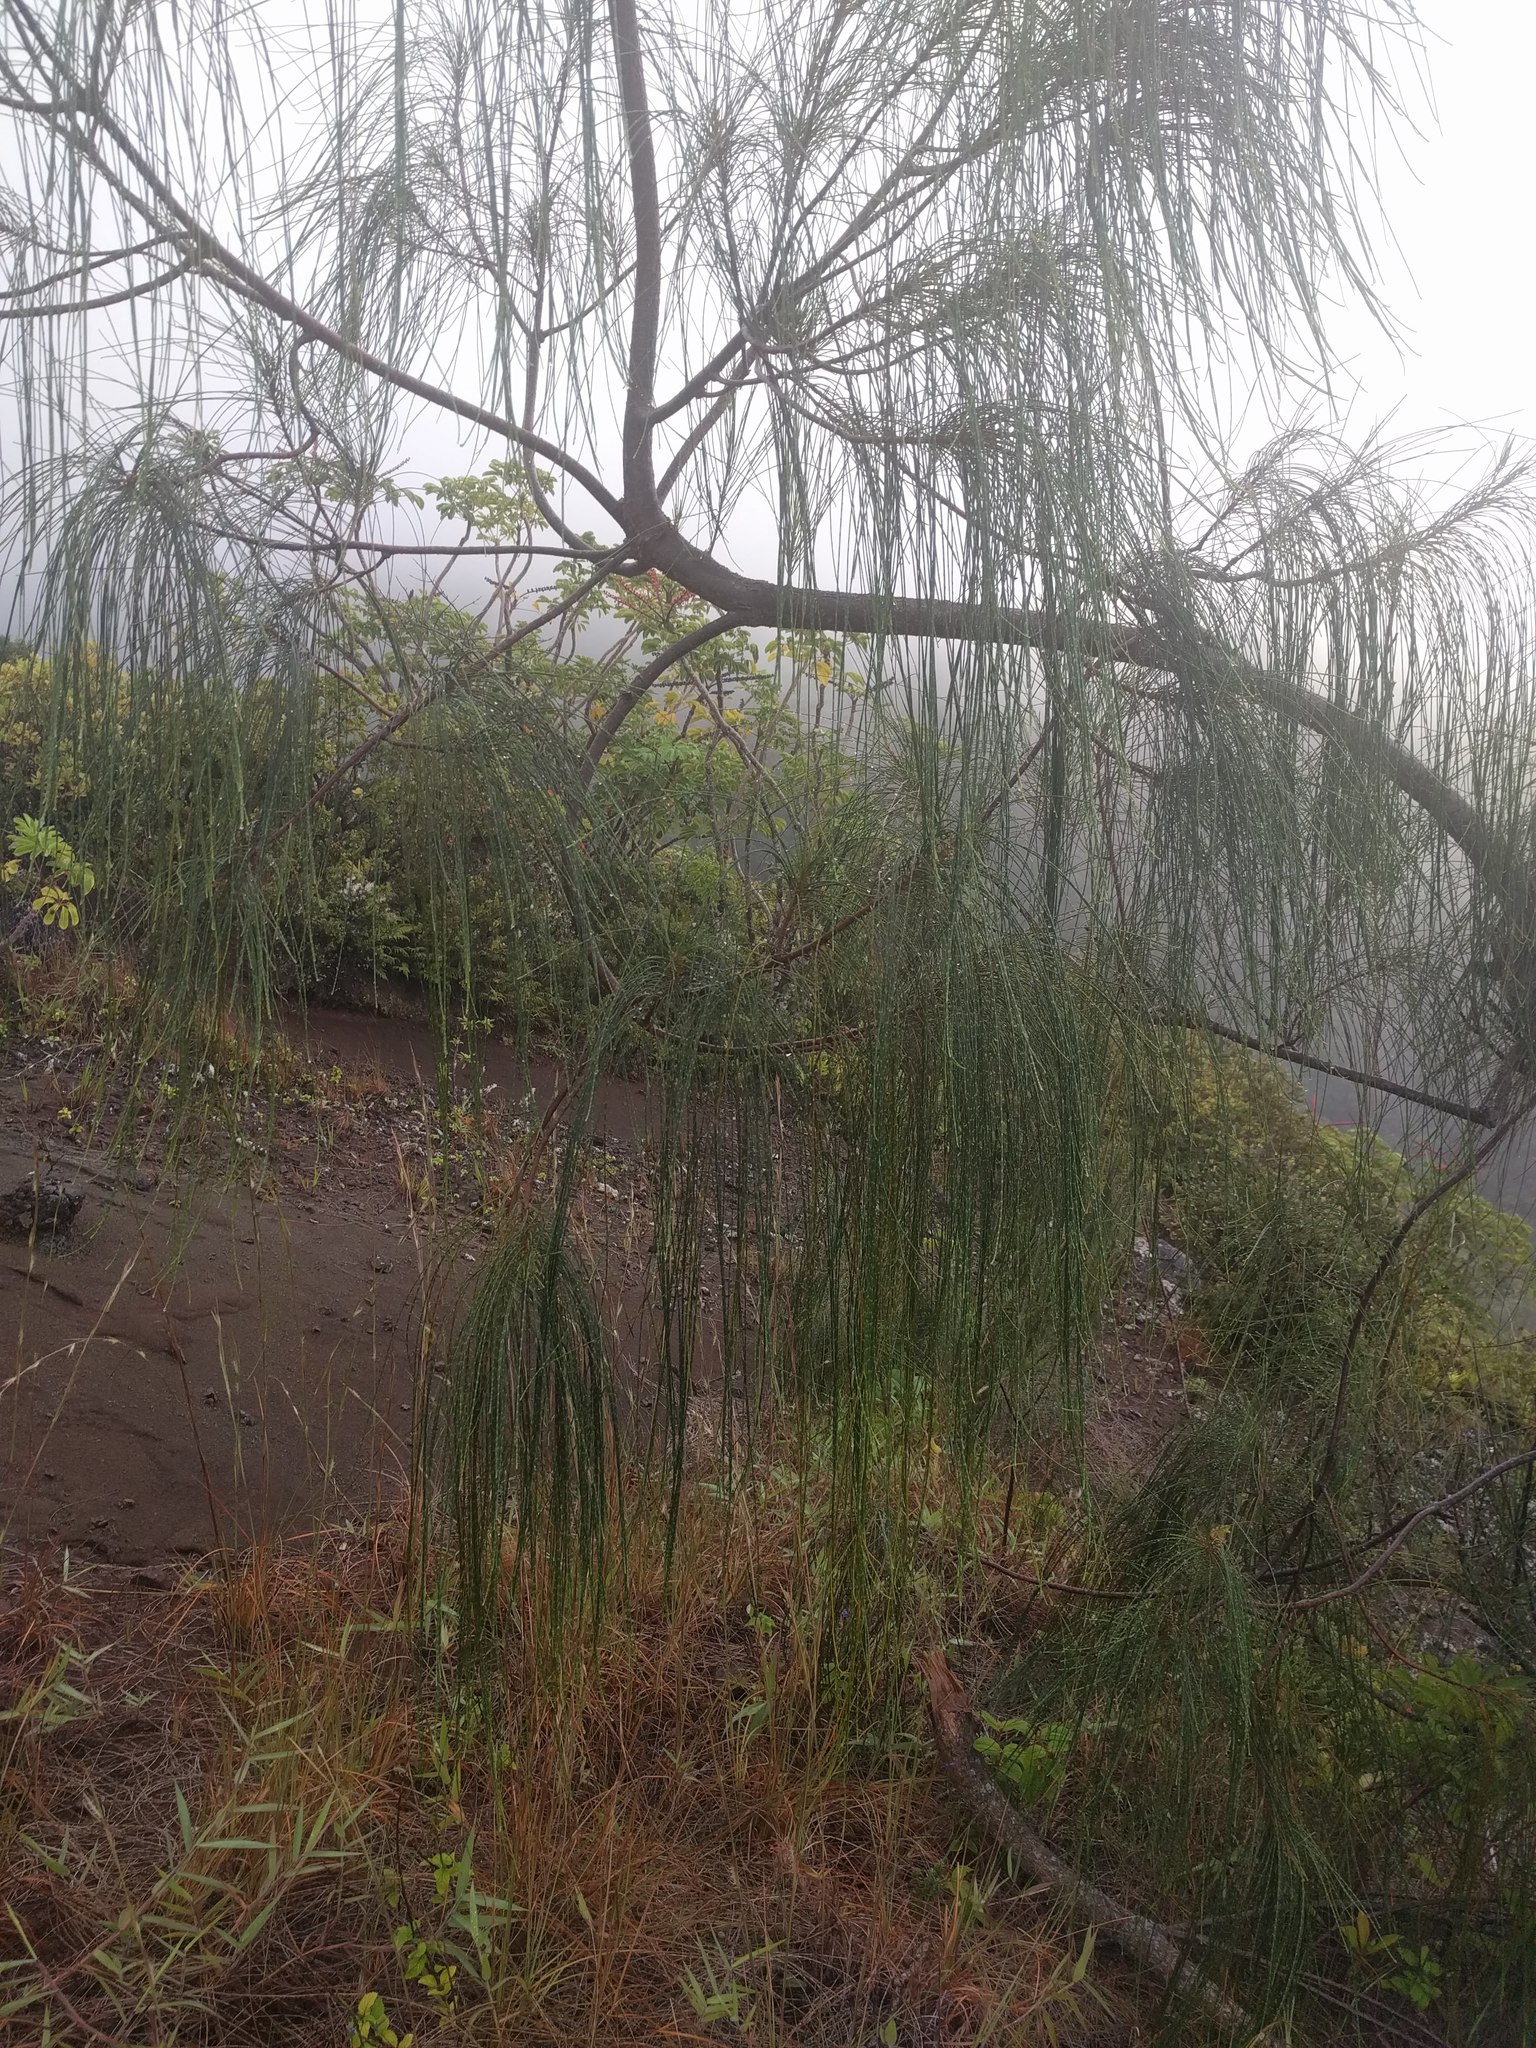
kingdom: Plantae
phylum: Tracheophyta
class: Magnoliopsida
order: Fagales
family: Casuarinaceae
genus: Casuarina
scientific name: Casuarina equisetifolia
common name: Beach sheoak
